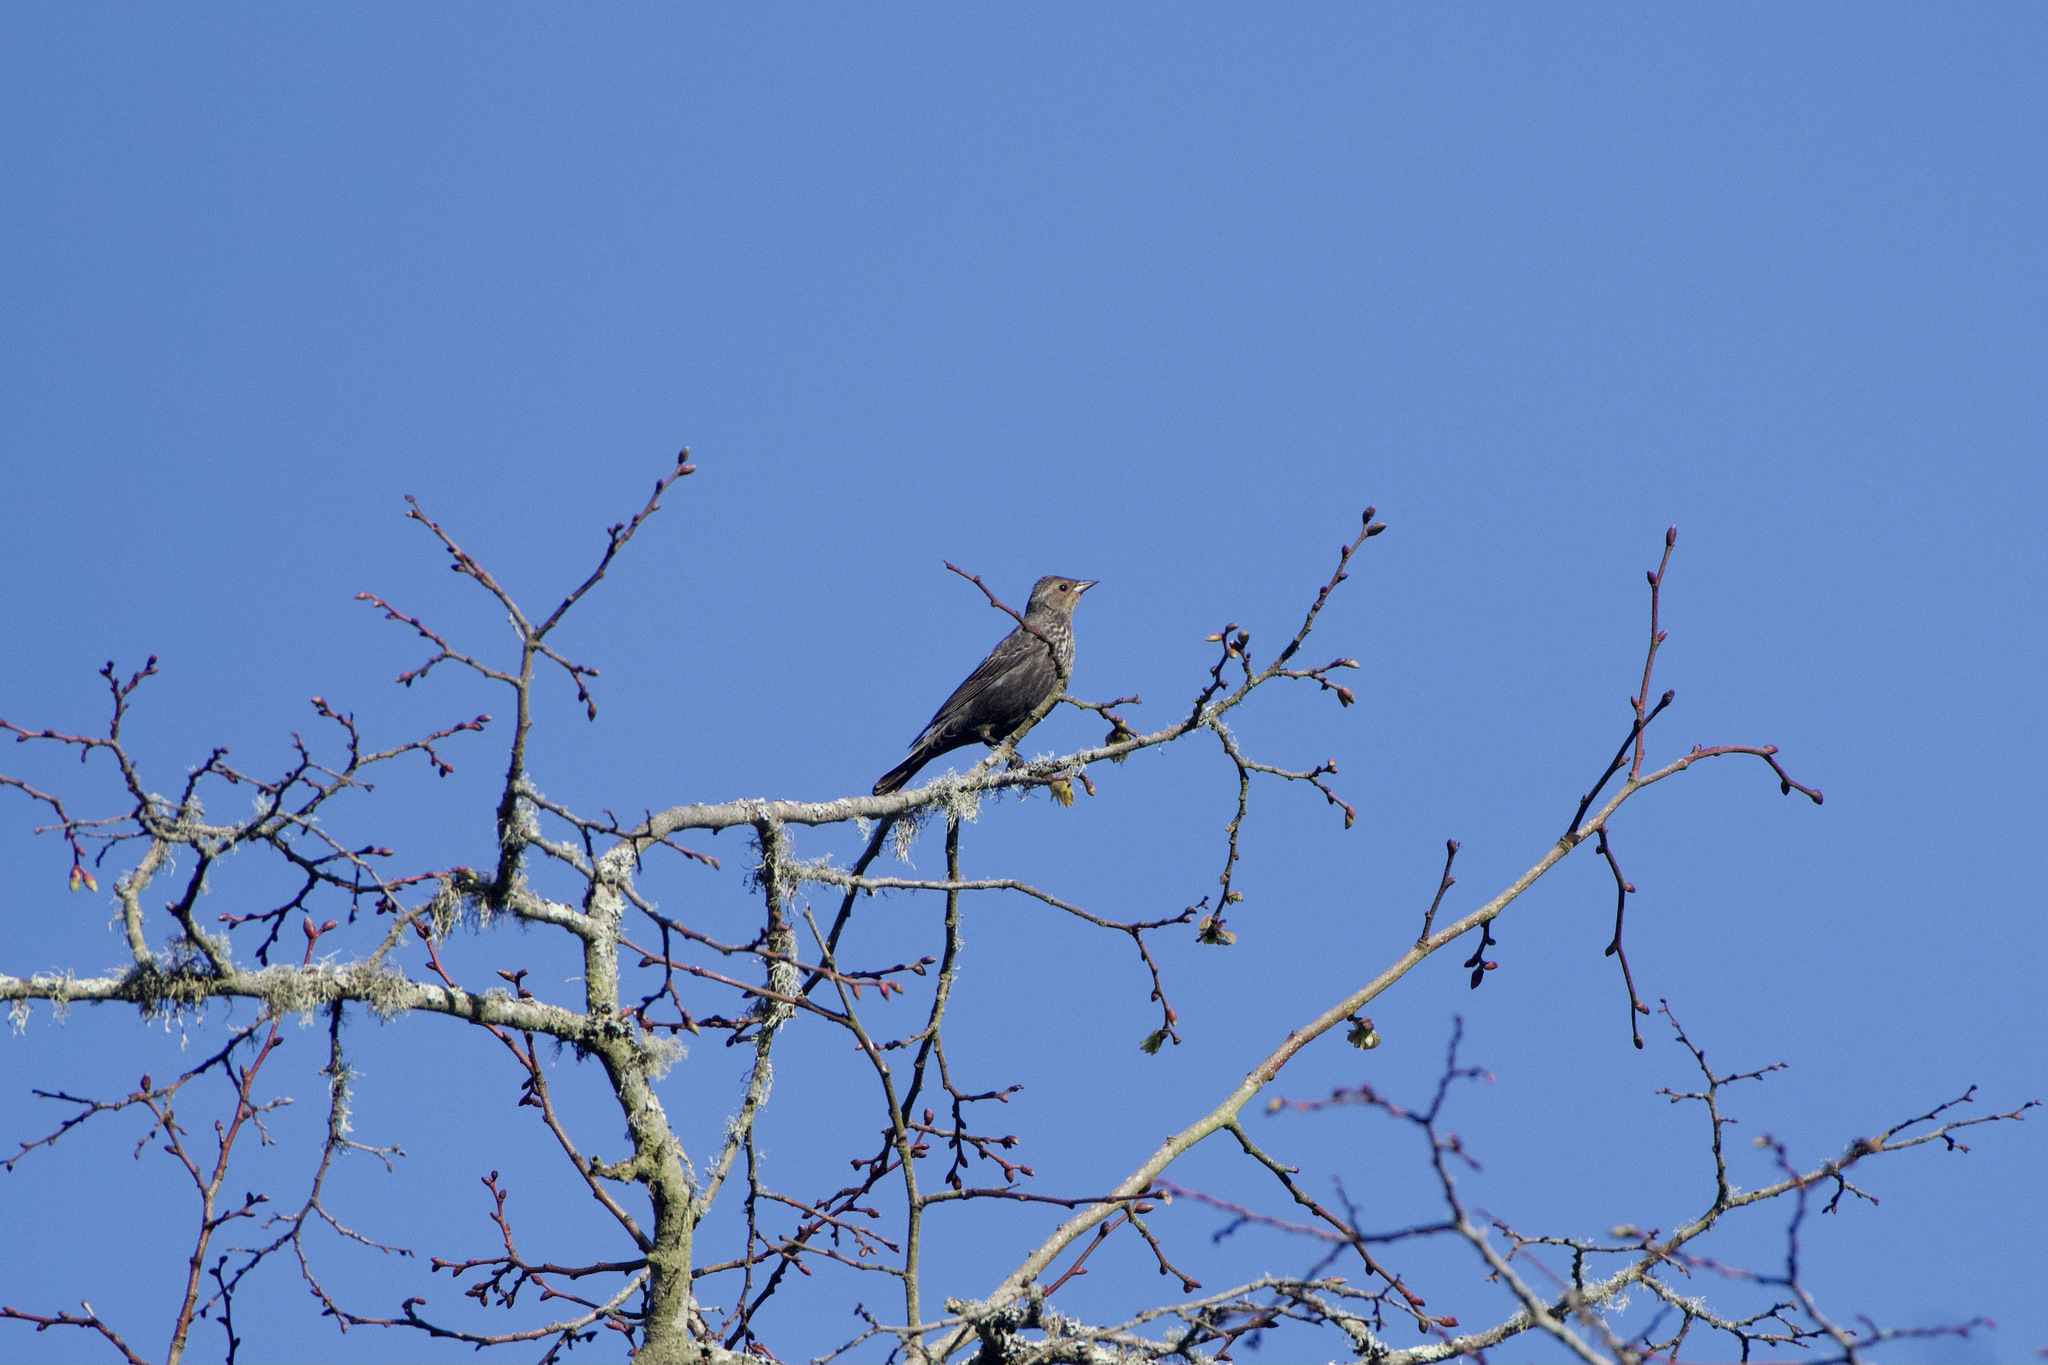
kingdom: Animalia
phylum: Chordata
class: Aves
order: Passeriformes
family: Icteridae
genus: Agelaius
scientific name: Agelaius phoeniceus
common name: Red-winged blackbird
